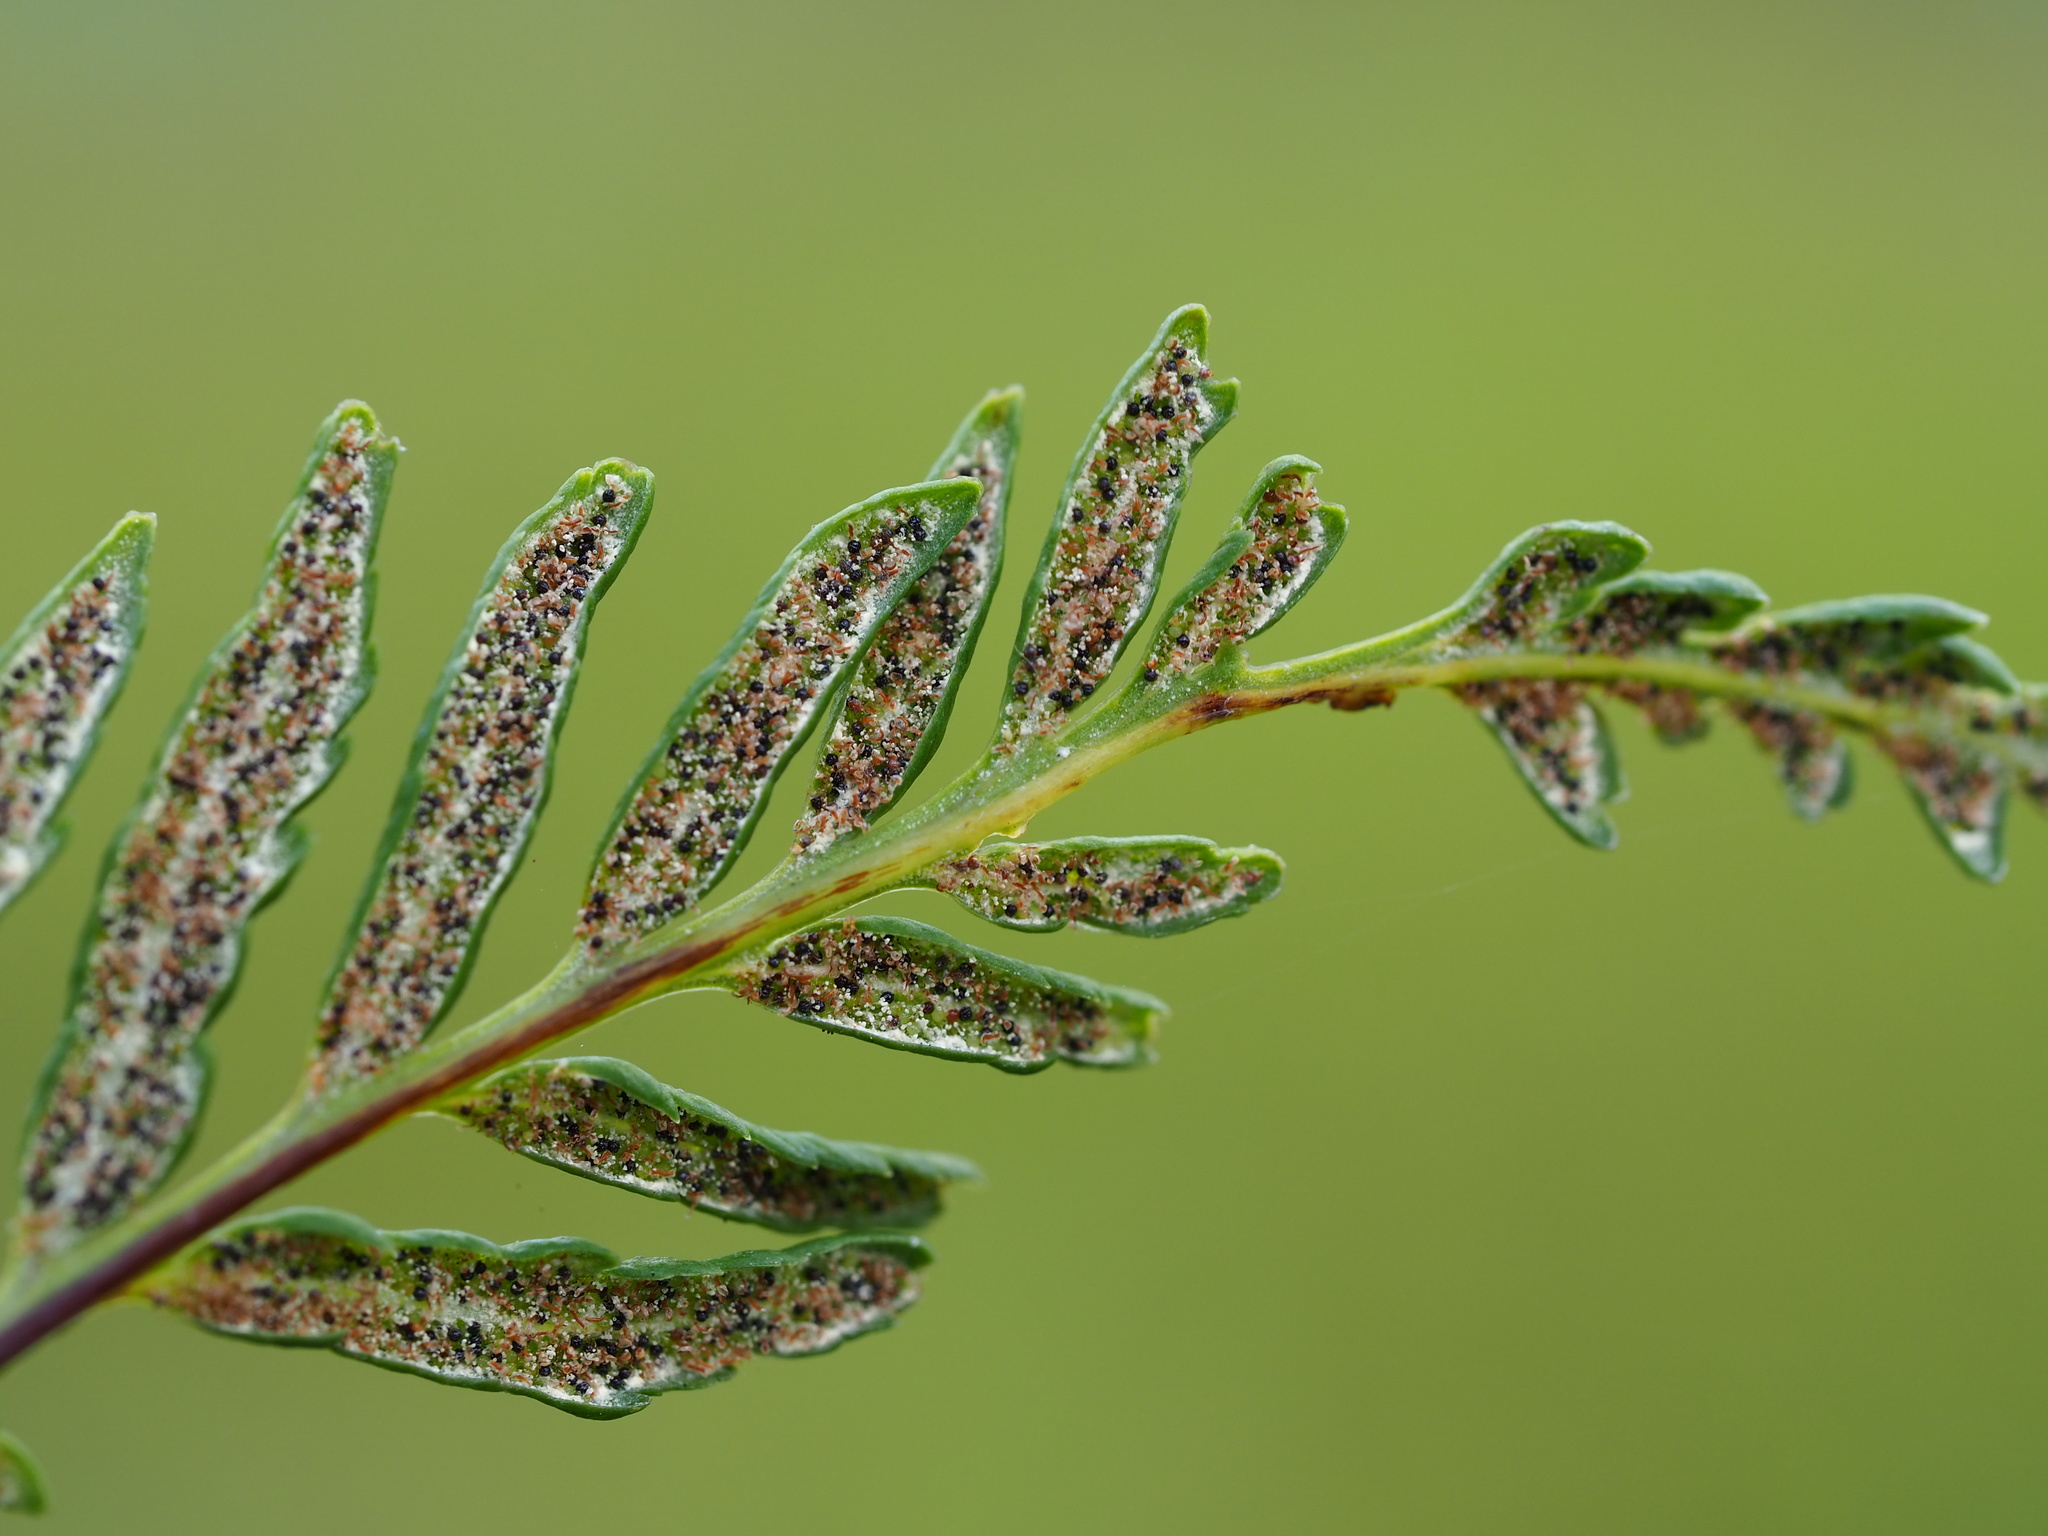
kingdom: Plantae
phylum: Tracheophyta
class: Polypodiopsida
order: Polypodiales
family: Pteridaceae
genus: Pityrogramma
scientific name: Pityrogramma calomelanos
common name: Dixie silverback fern
